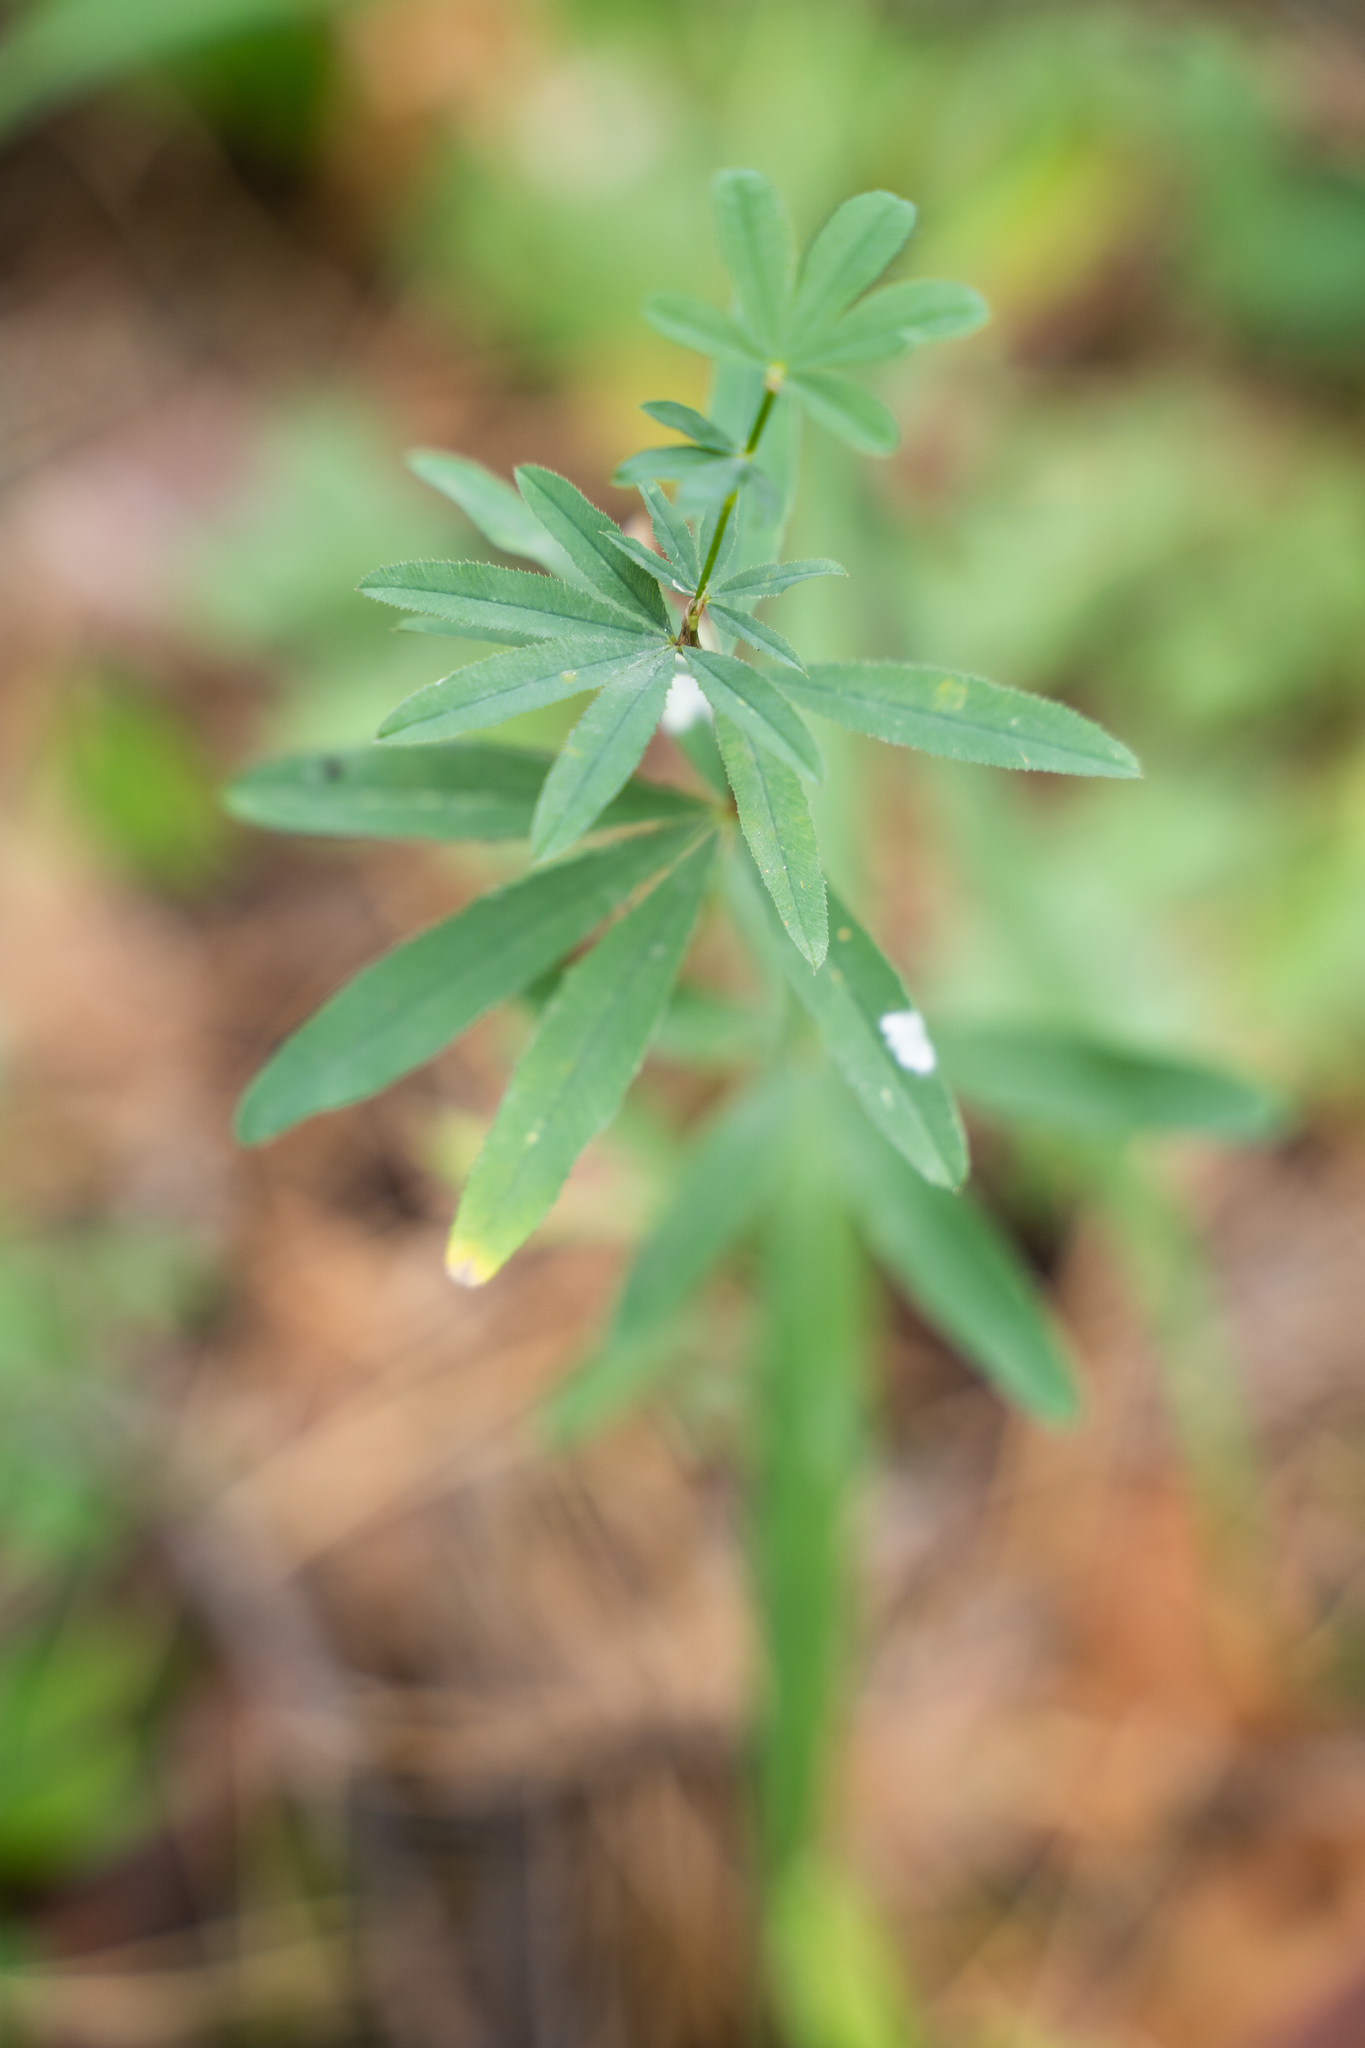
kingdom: Plantae
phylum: Tracheophyta
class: Magnoliopsida
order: Fabales
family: Fabaceae
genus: Trifolium
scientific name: Trifolium lupinaster
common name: Lupine clover
